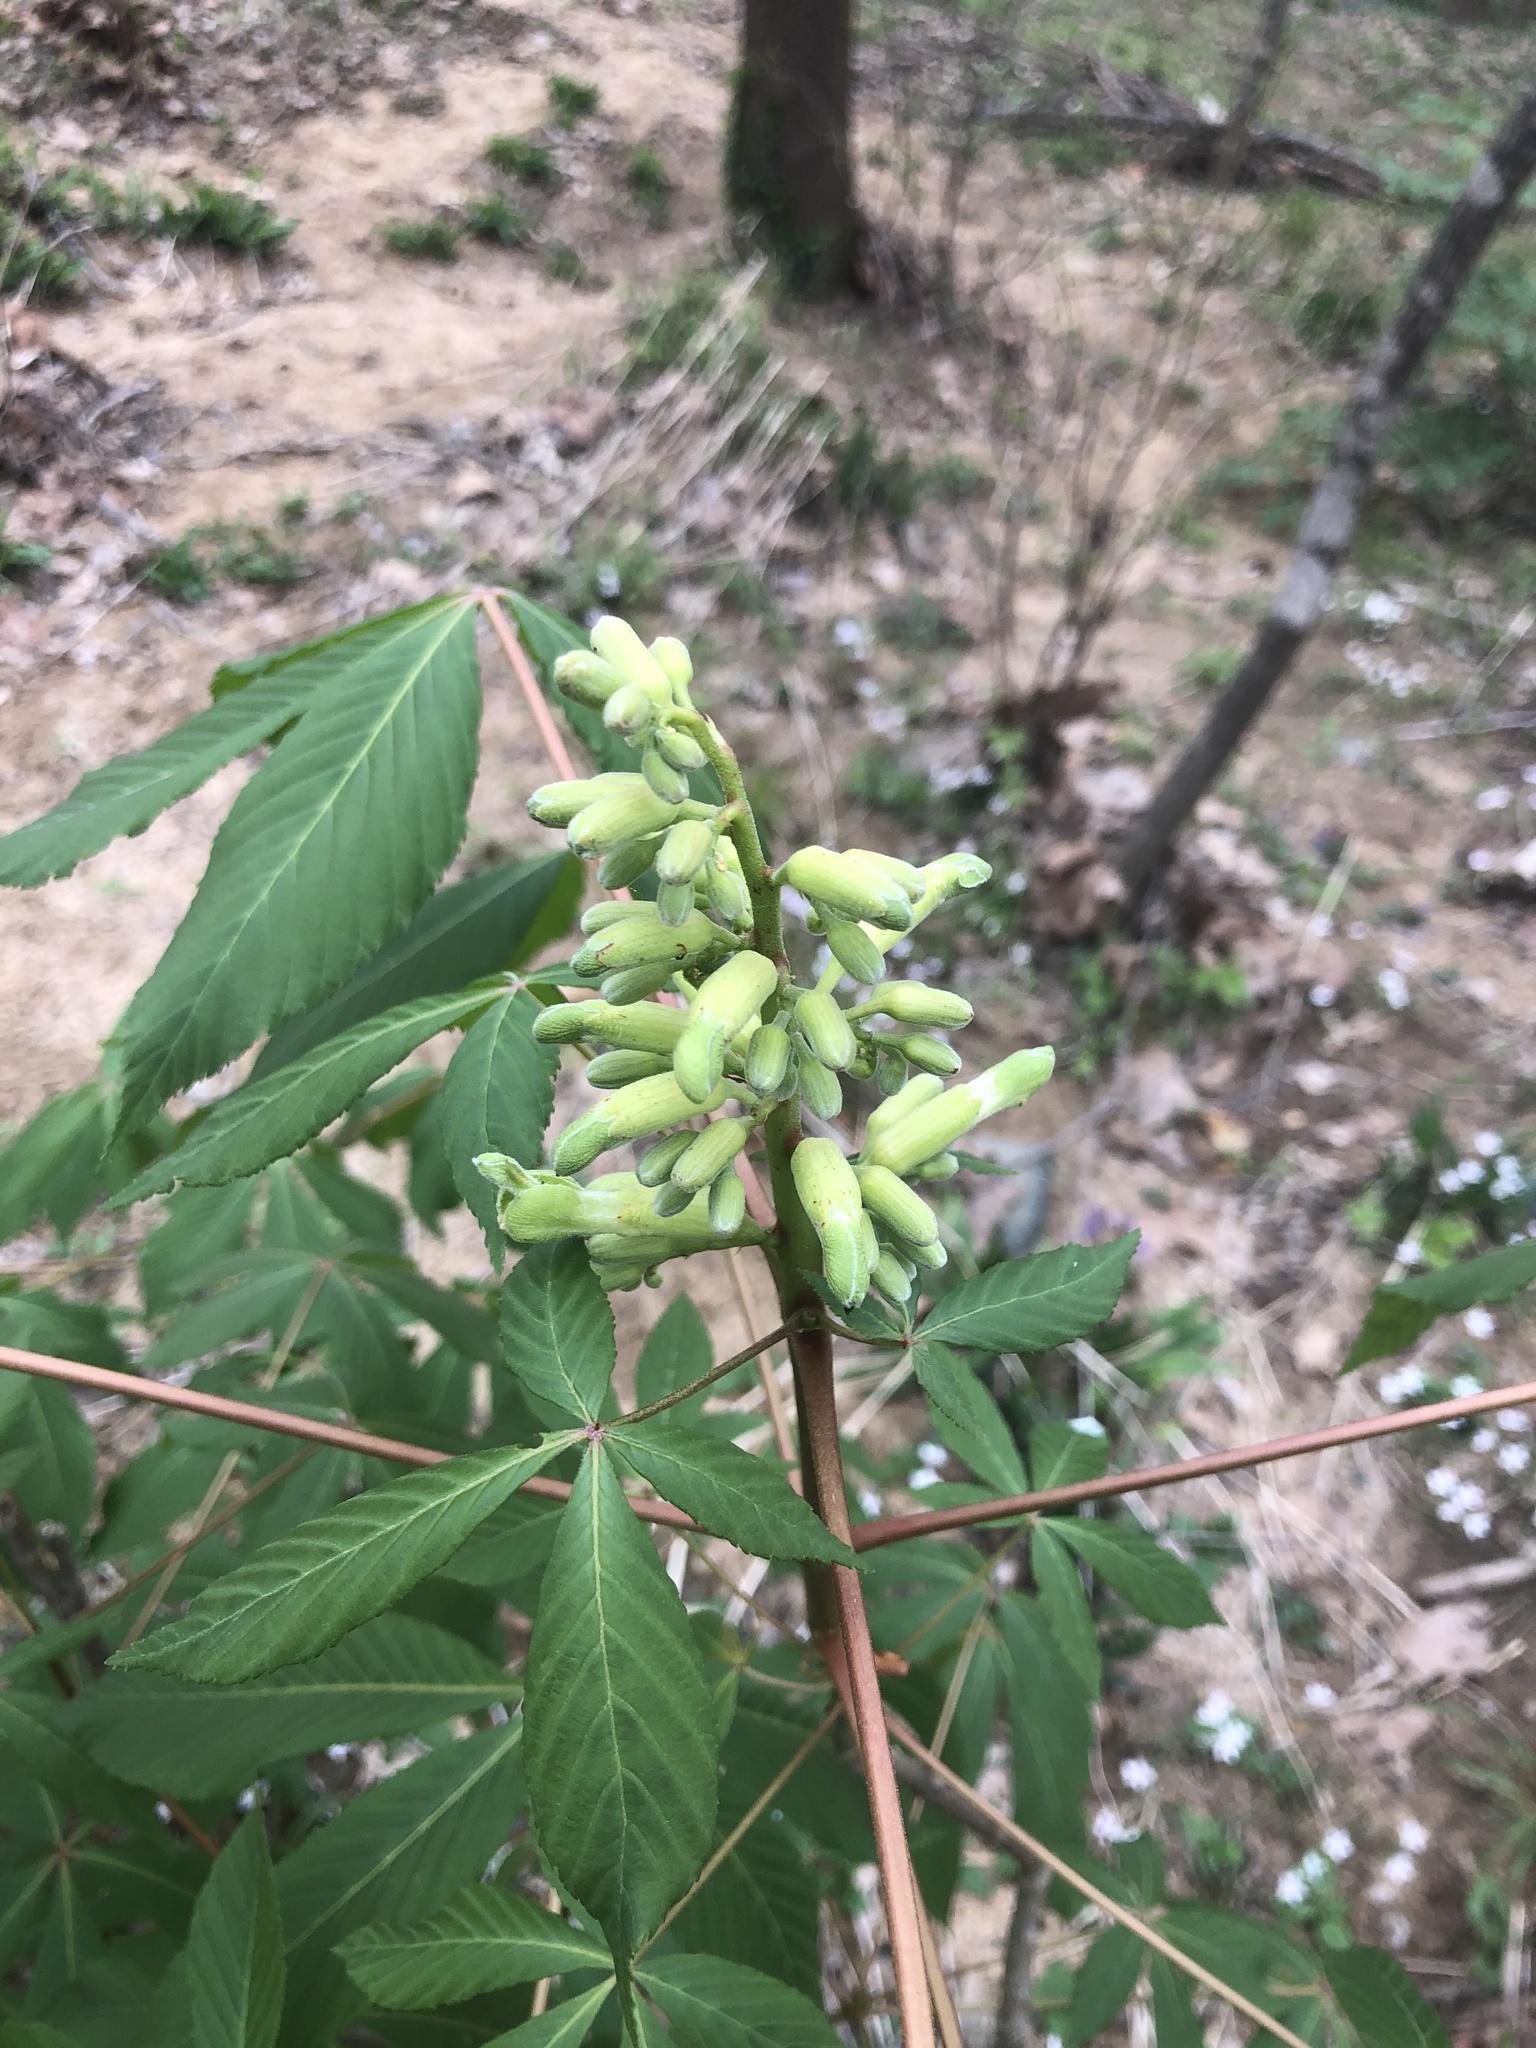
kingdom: Plantae
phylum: Tracheophyta
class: Magnoliopsida
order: Sapindales
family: Sapindaceae
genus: Aesculus
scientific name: Aesculus sylvatica
